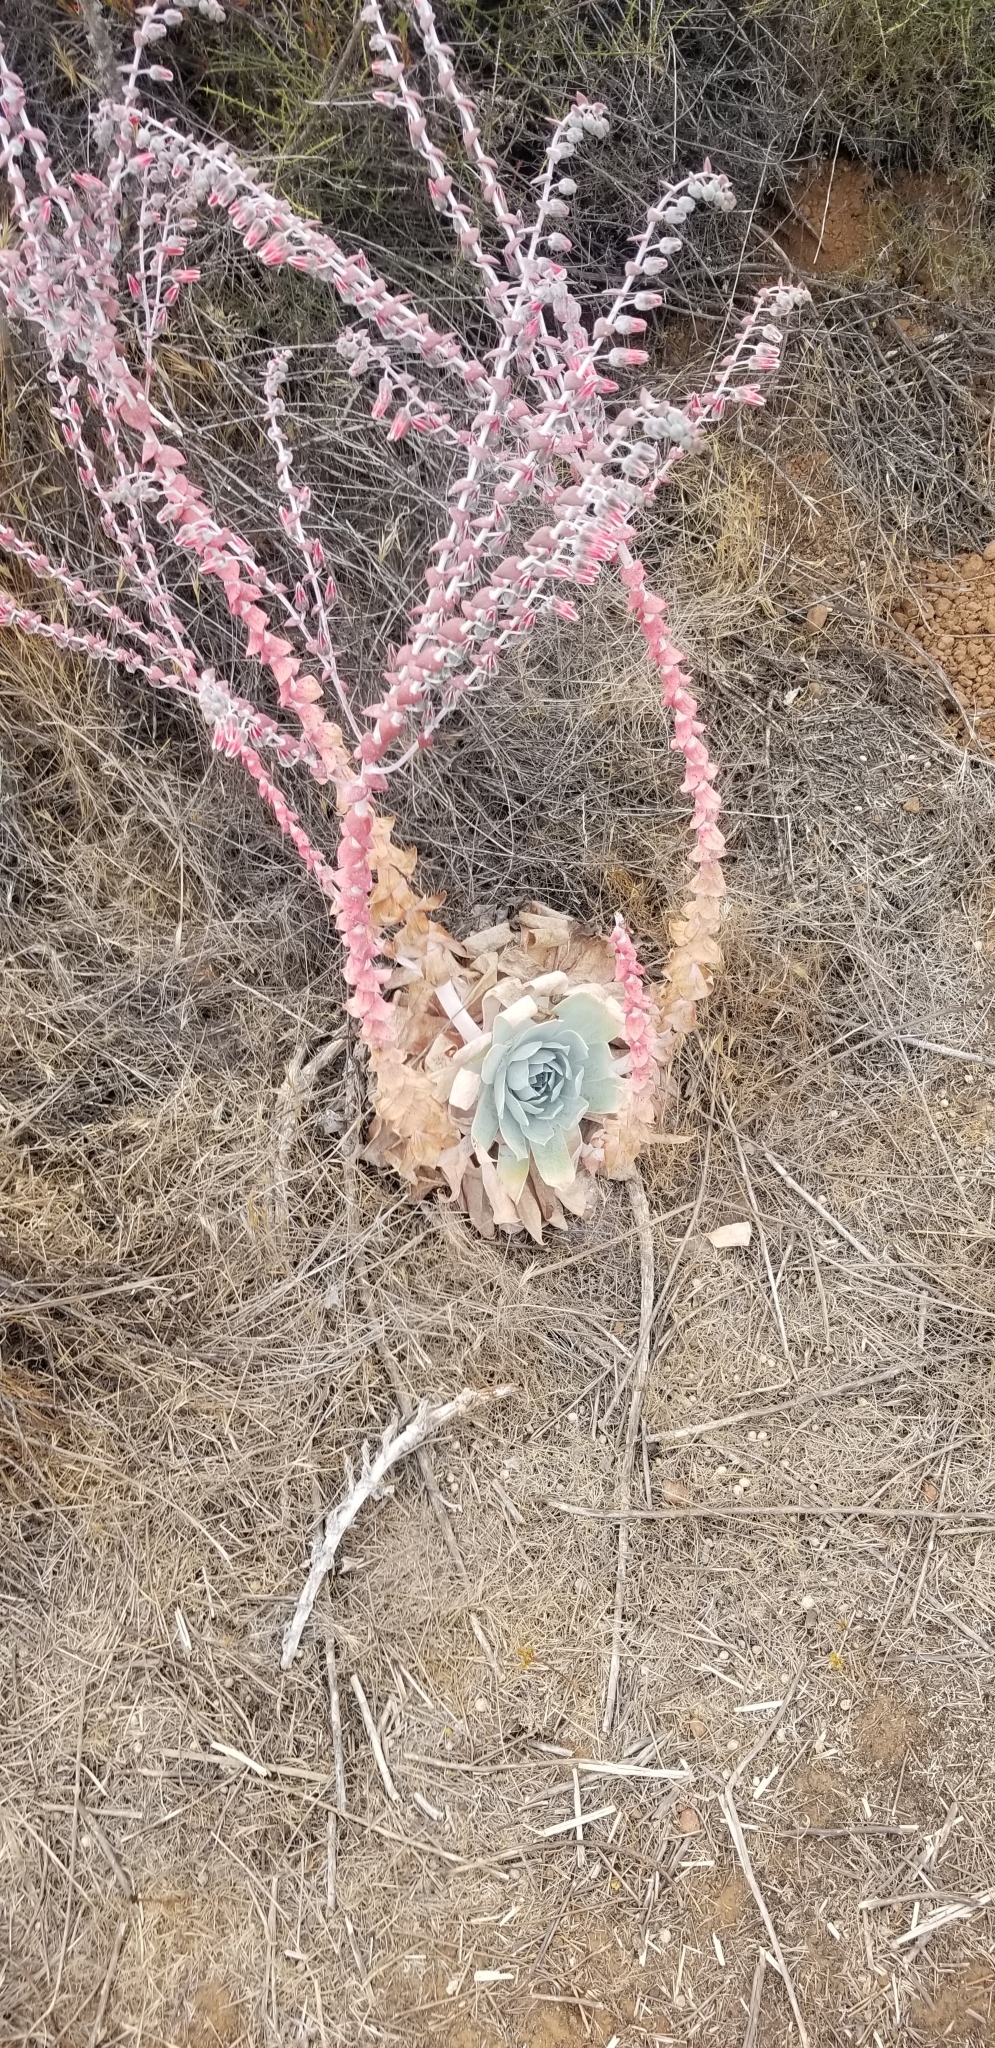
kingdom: Plantae
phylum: Tracheophyta
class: Magnoliopsida
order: Saxifragales
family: Crassulaceae
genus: Dudleya
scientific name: Dudleya pulverulenta
